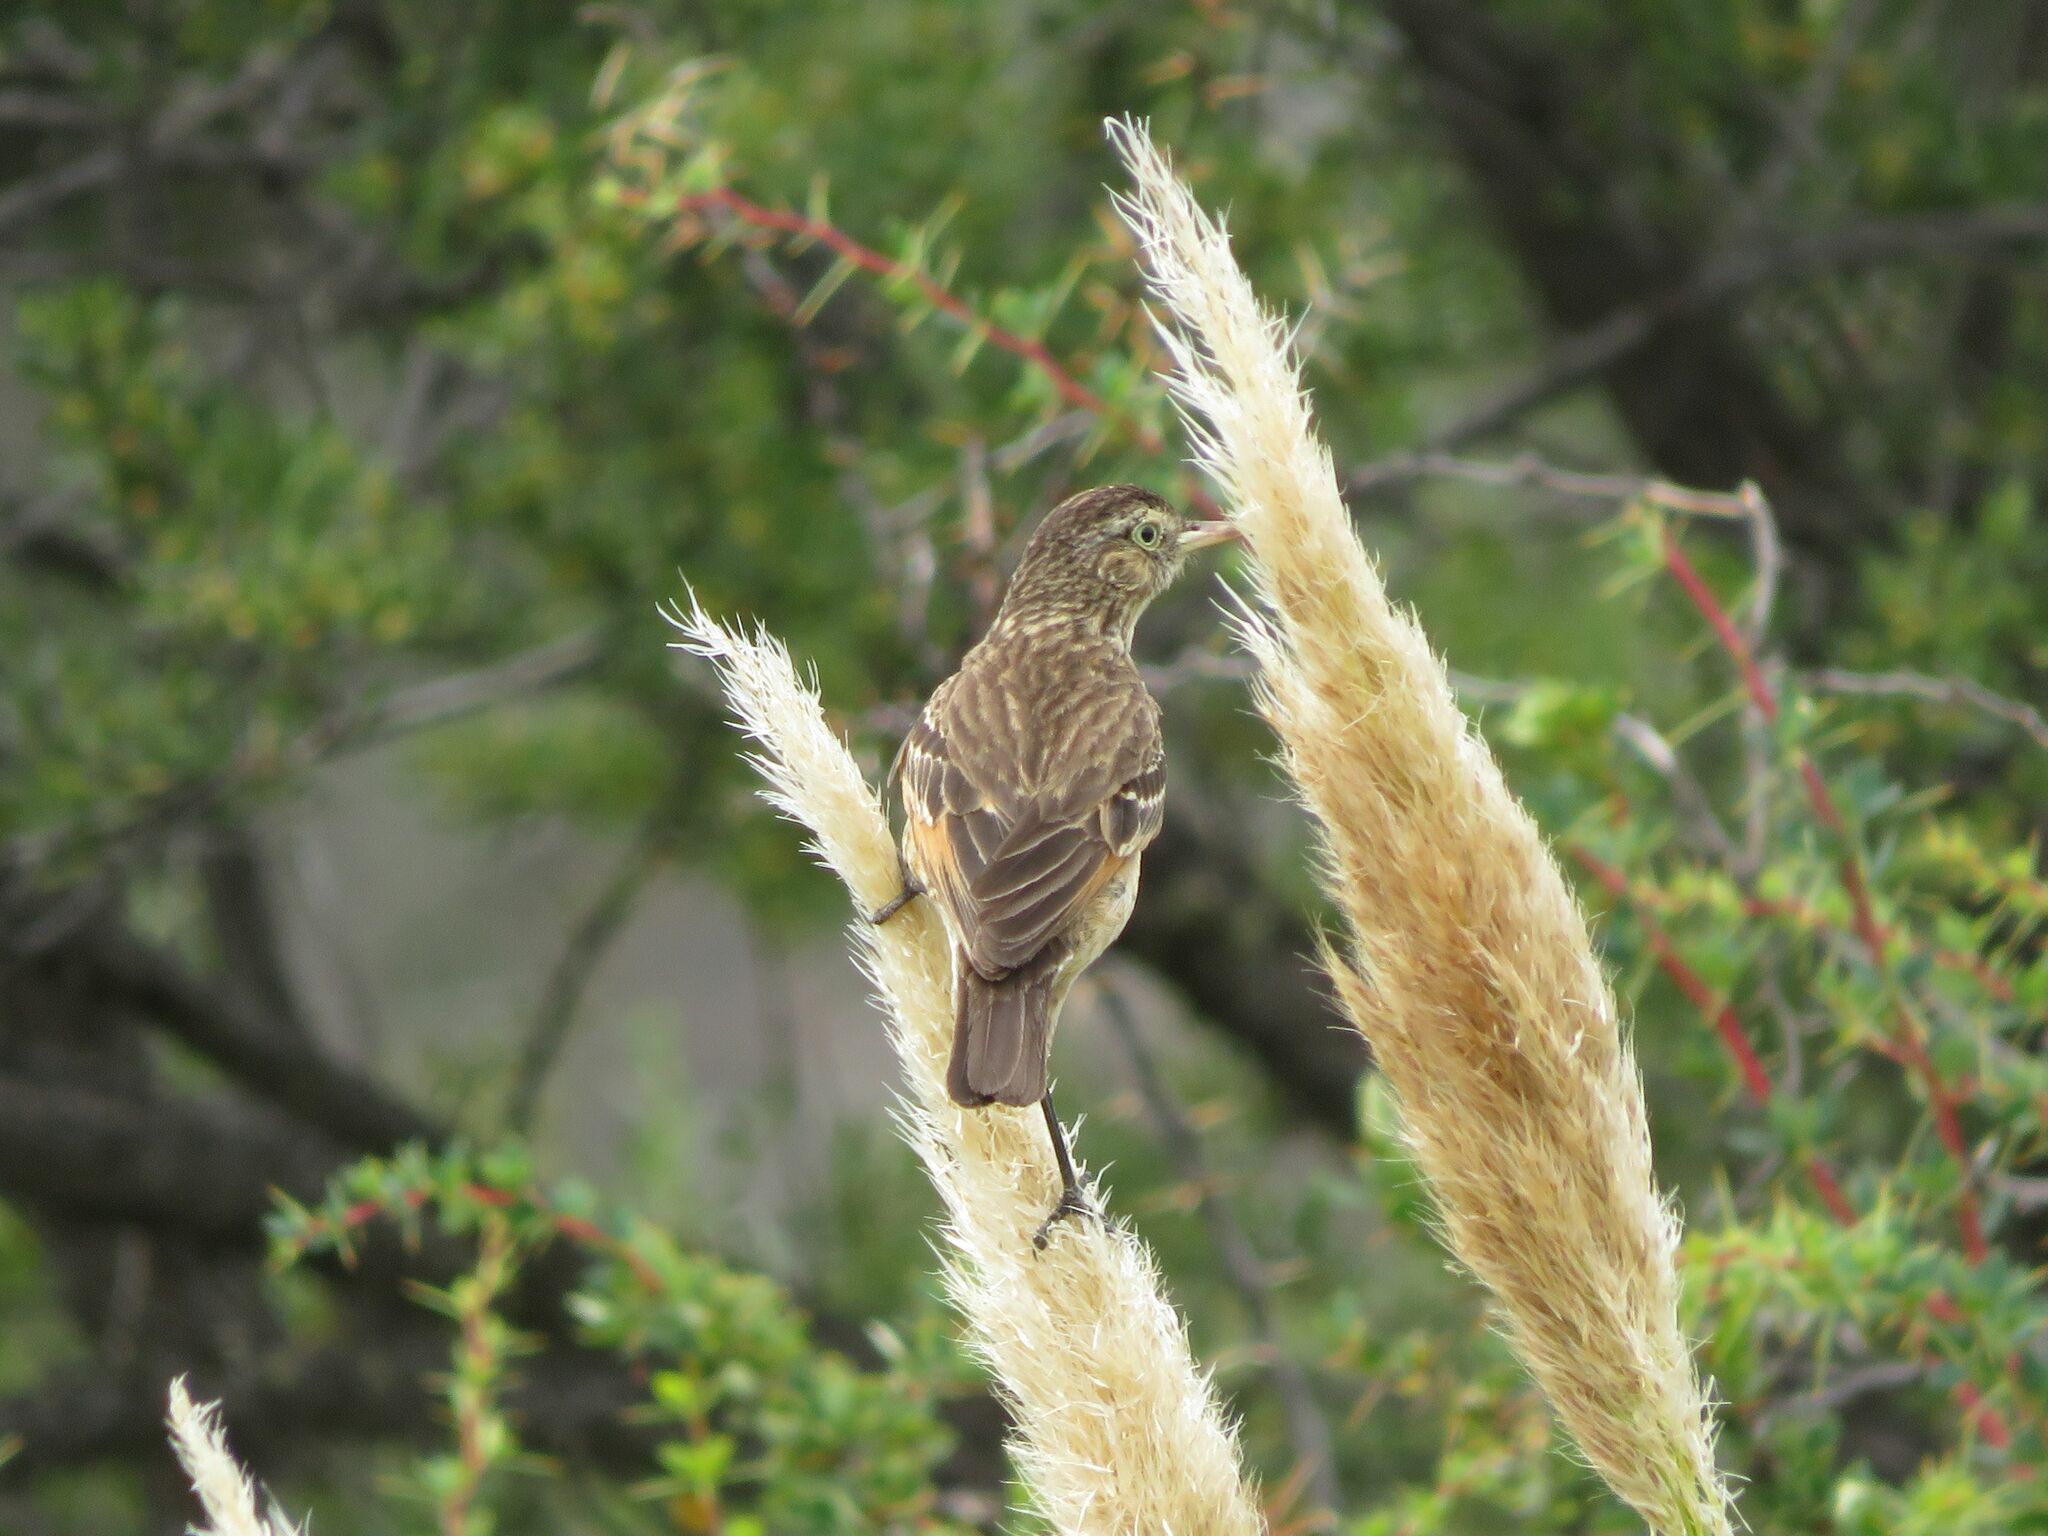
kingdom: Animalia
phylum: Chordata
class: Aves
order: Passeriformes
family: Tyrannidae
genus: Hymenops
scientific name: Hymenops perspicillatus
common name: Spectacled tyrant
